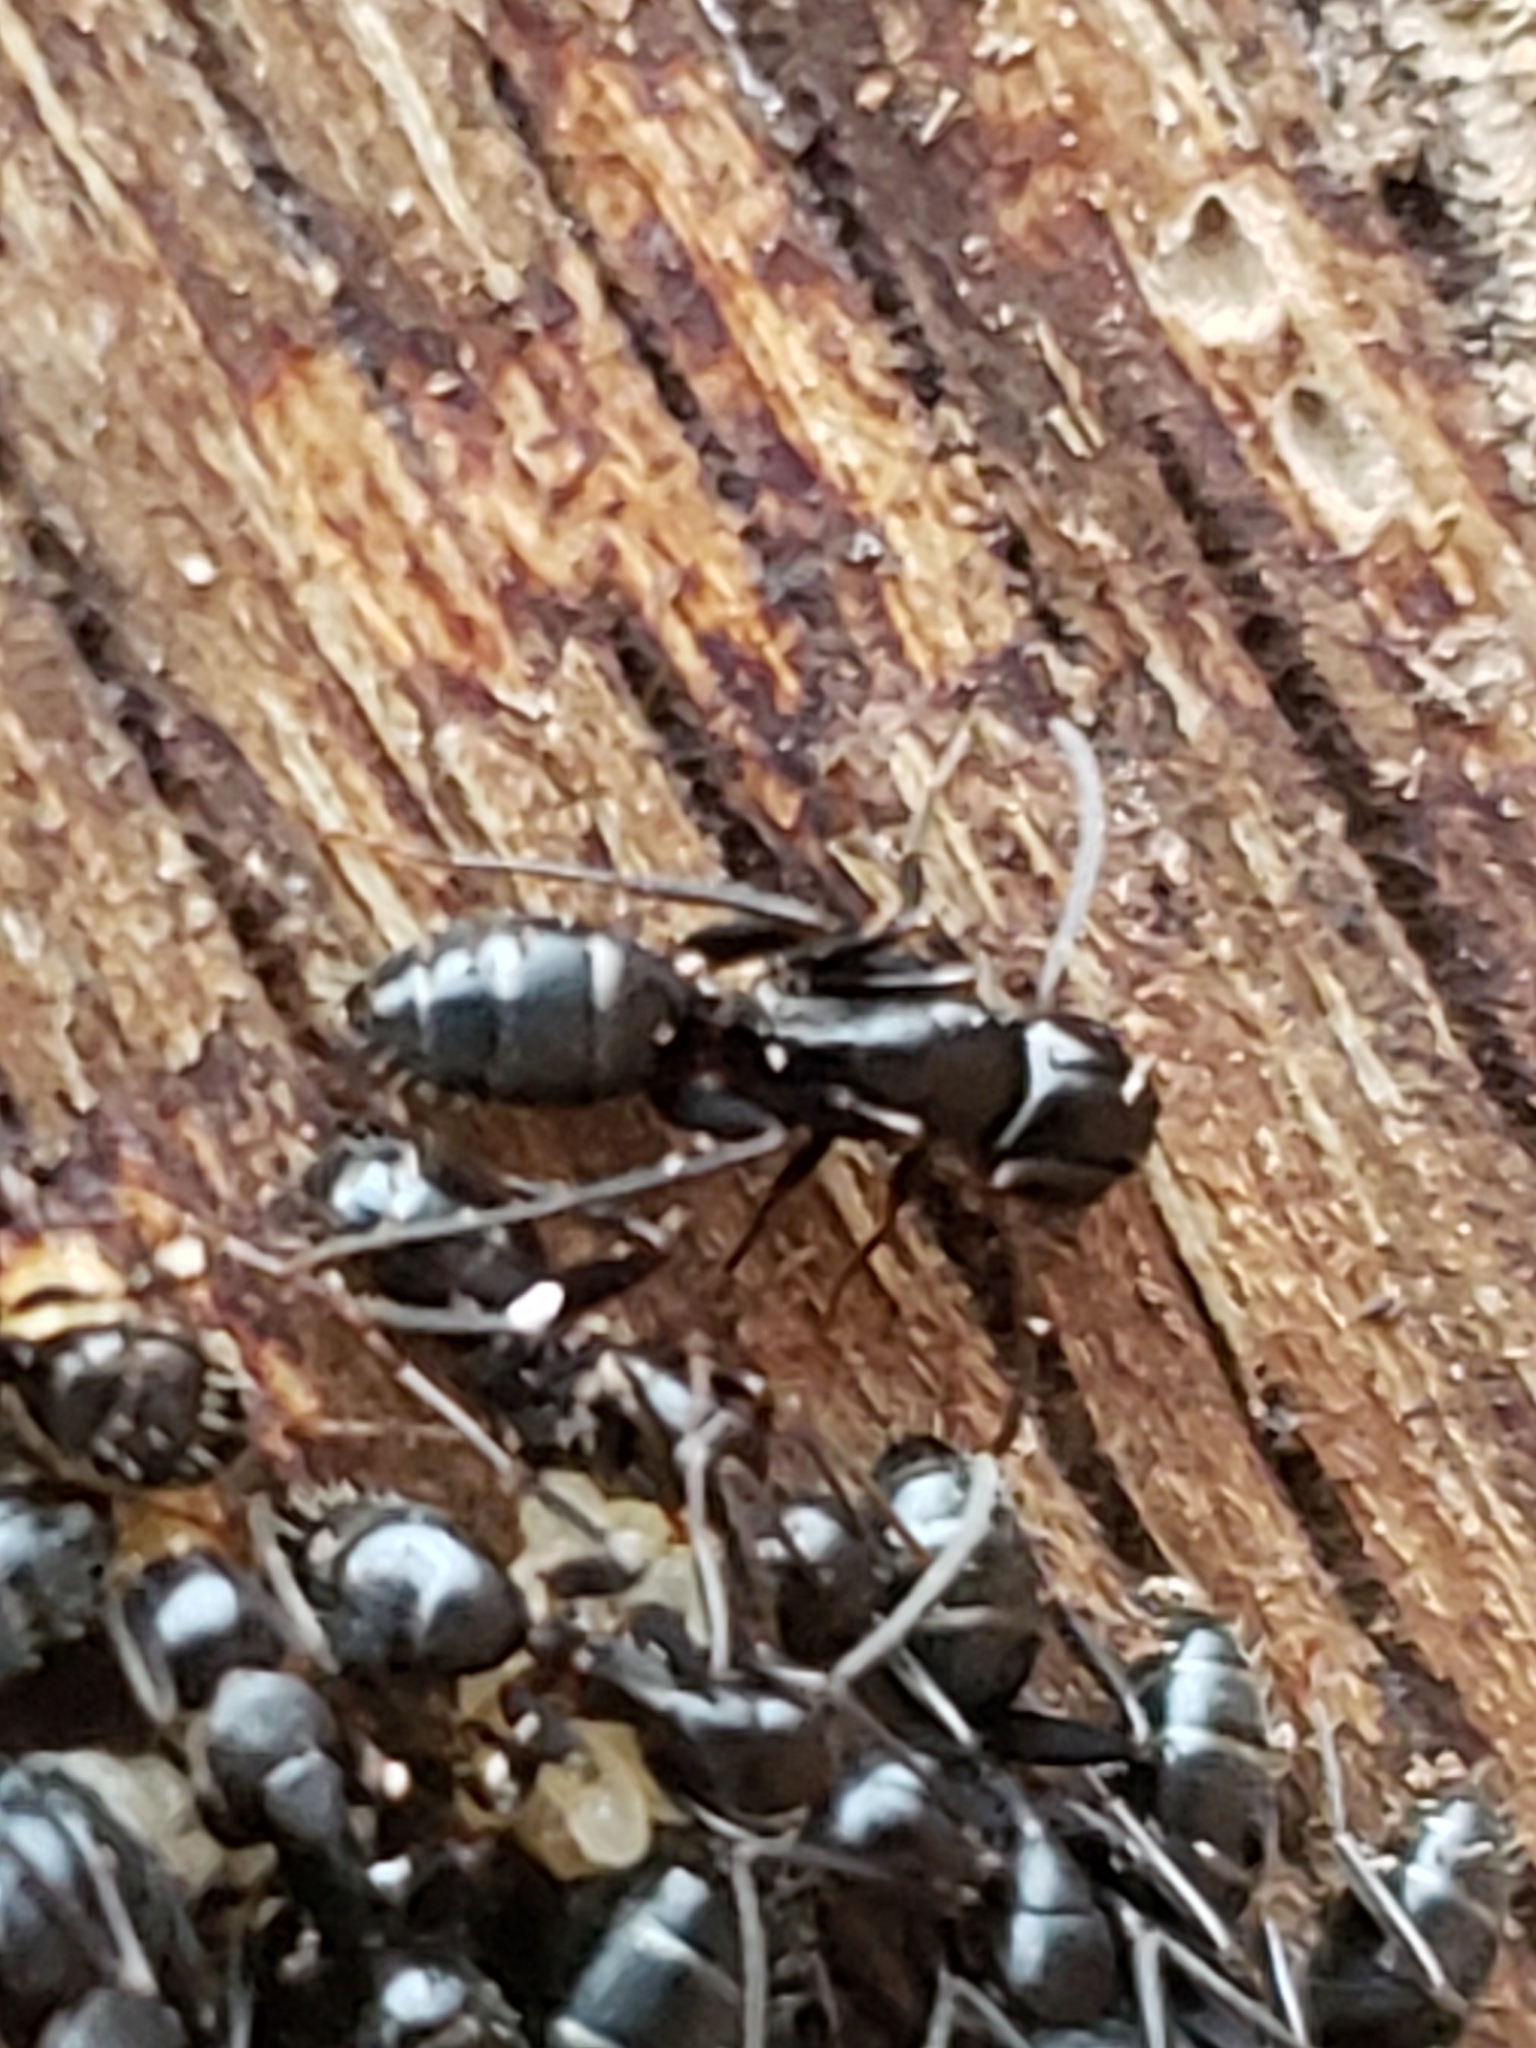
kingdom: Animalia
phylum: Arthropoda
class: Insecta
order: Hymenoptera
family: Formicidae
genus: Camponotus
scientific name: Camponotus nearcticus
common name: Smaller carpenter ant
